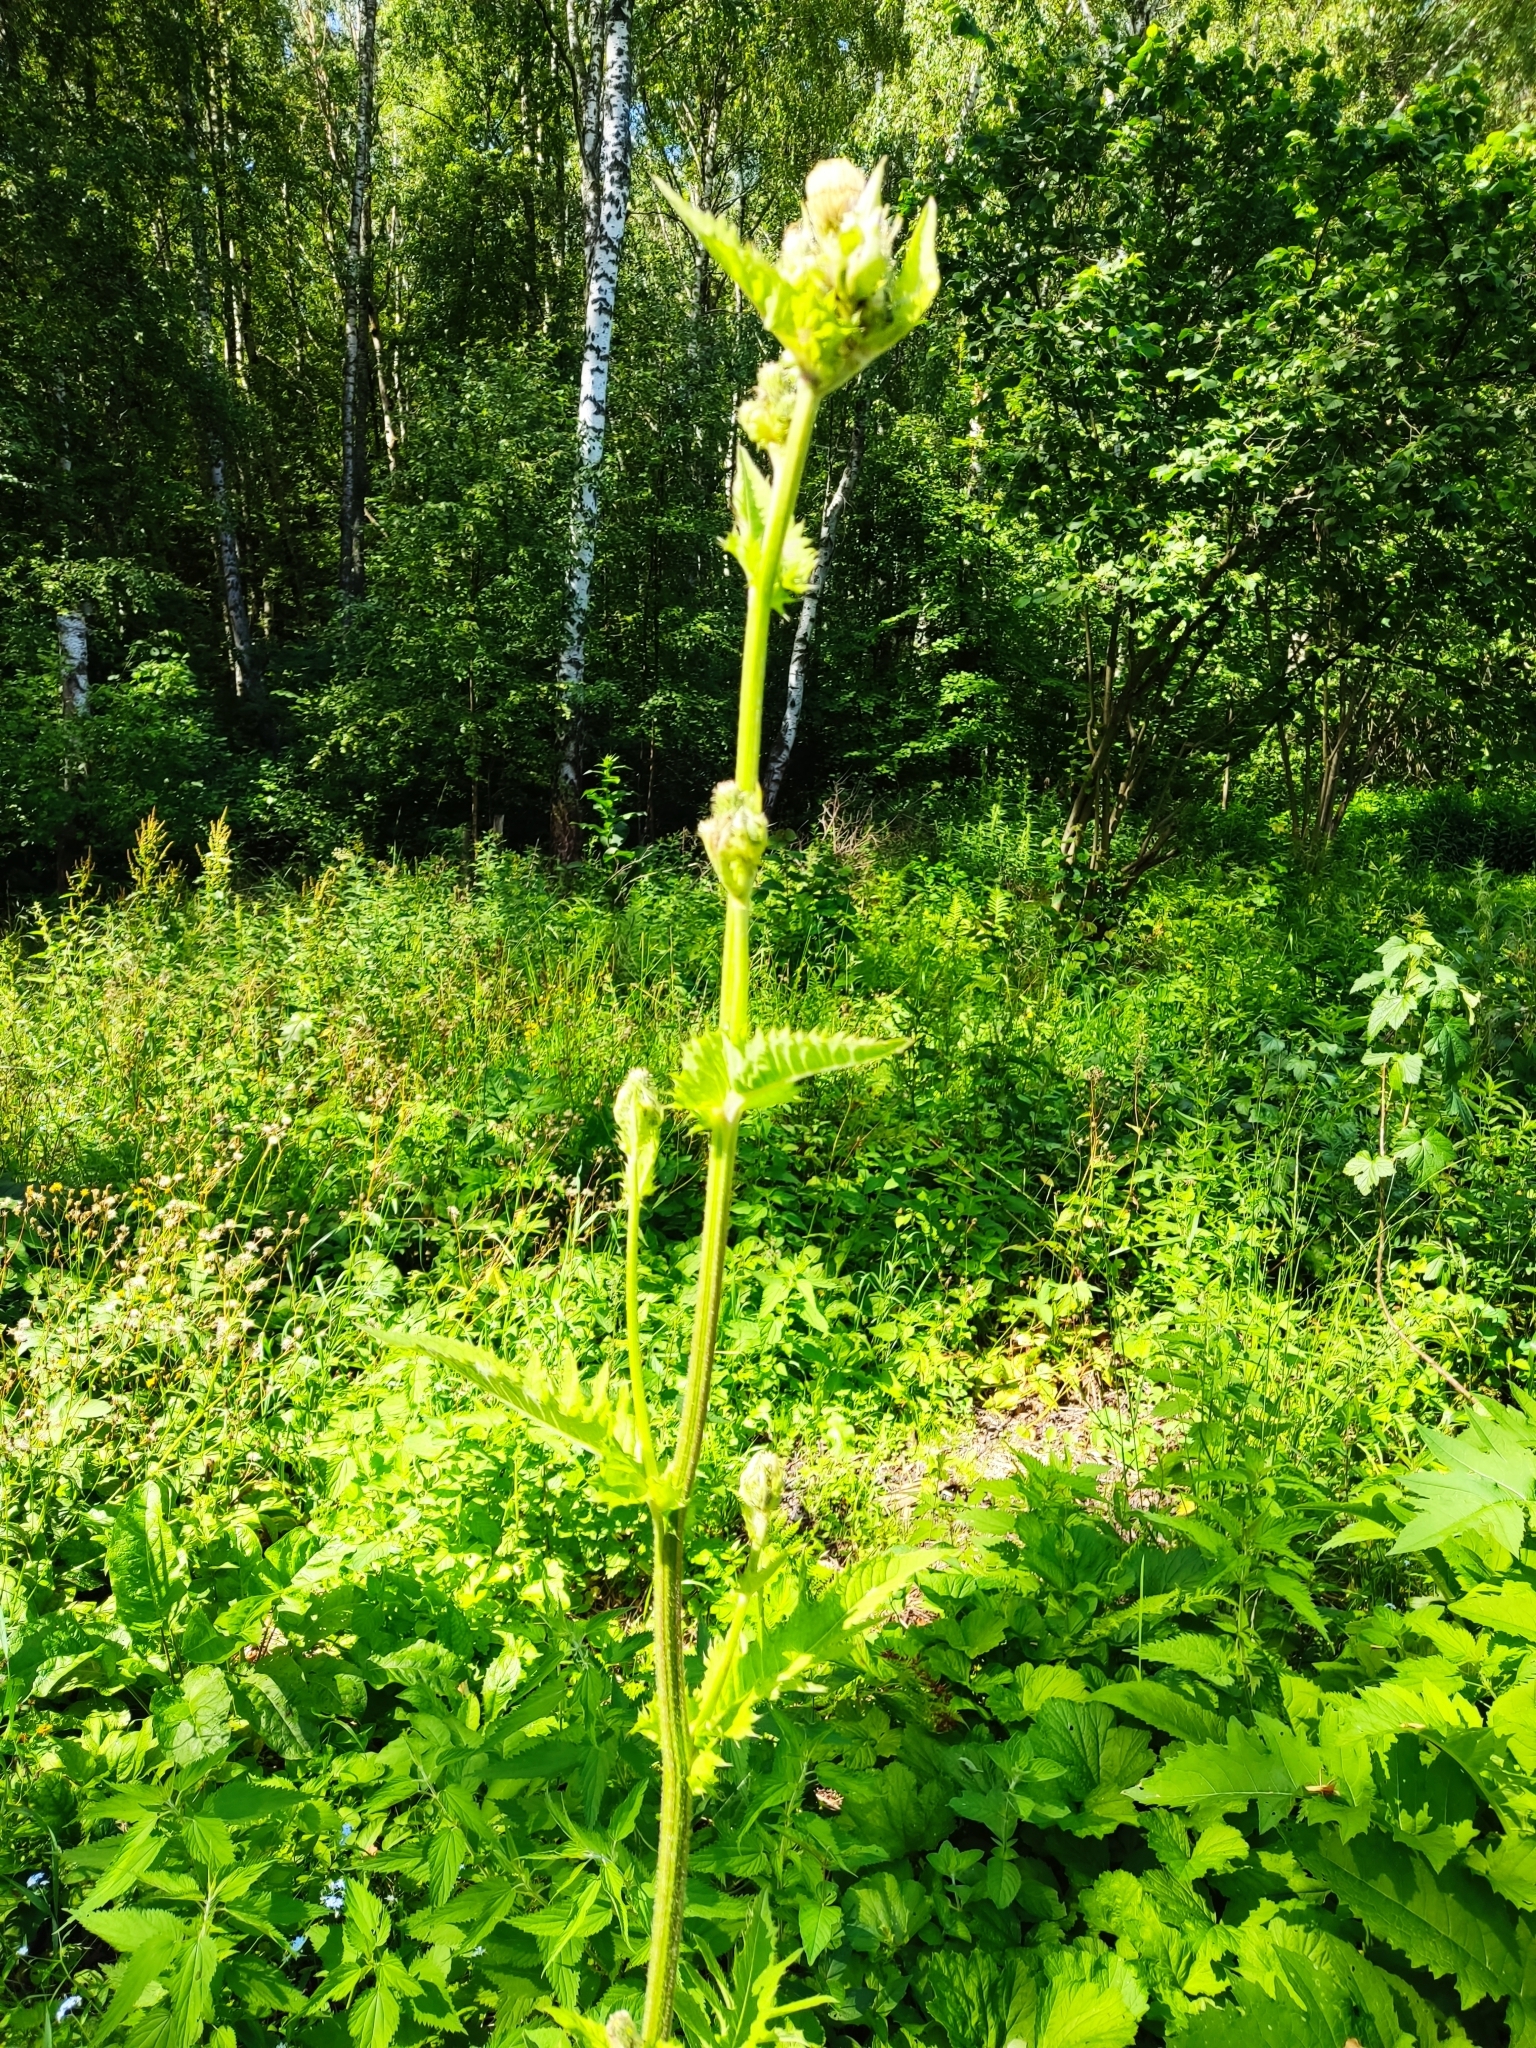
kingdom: Plantae
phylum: Tracheophyta
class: Magnoliopsida
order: Asterales
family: Asteraceae
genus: Cirsium
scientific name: Cirsium oleraceum
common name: Cabbage thistle
